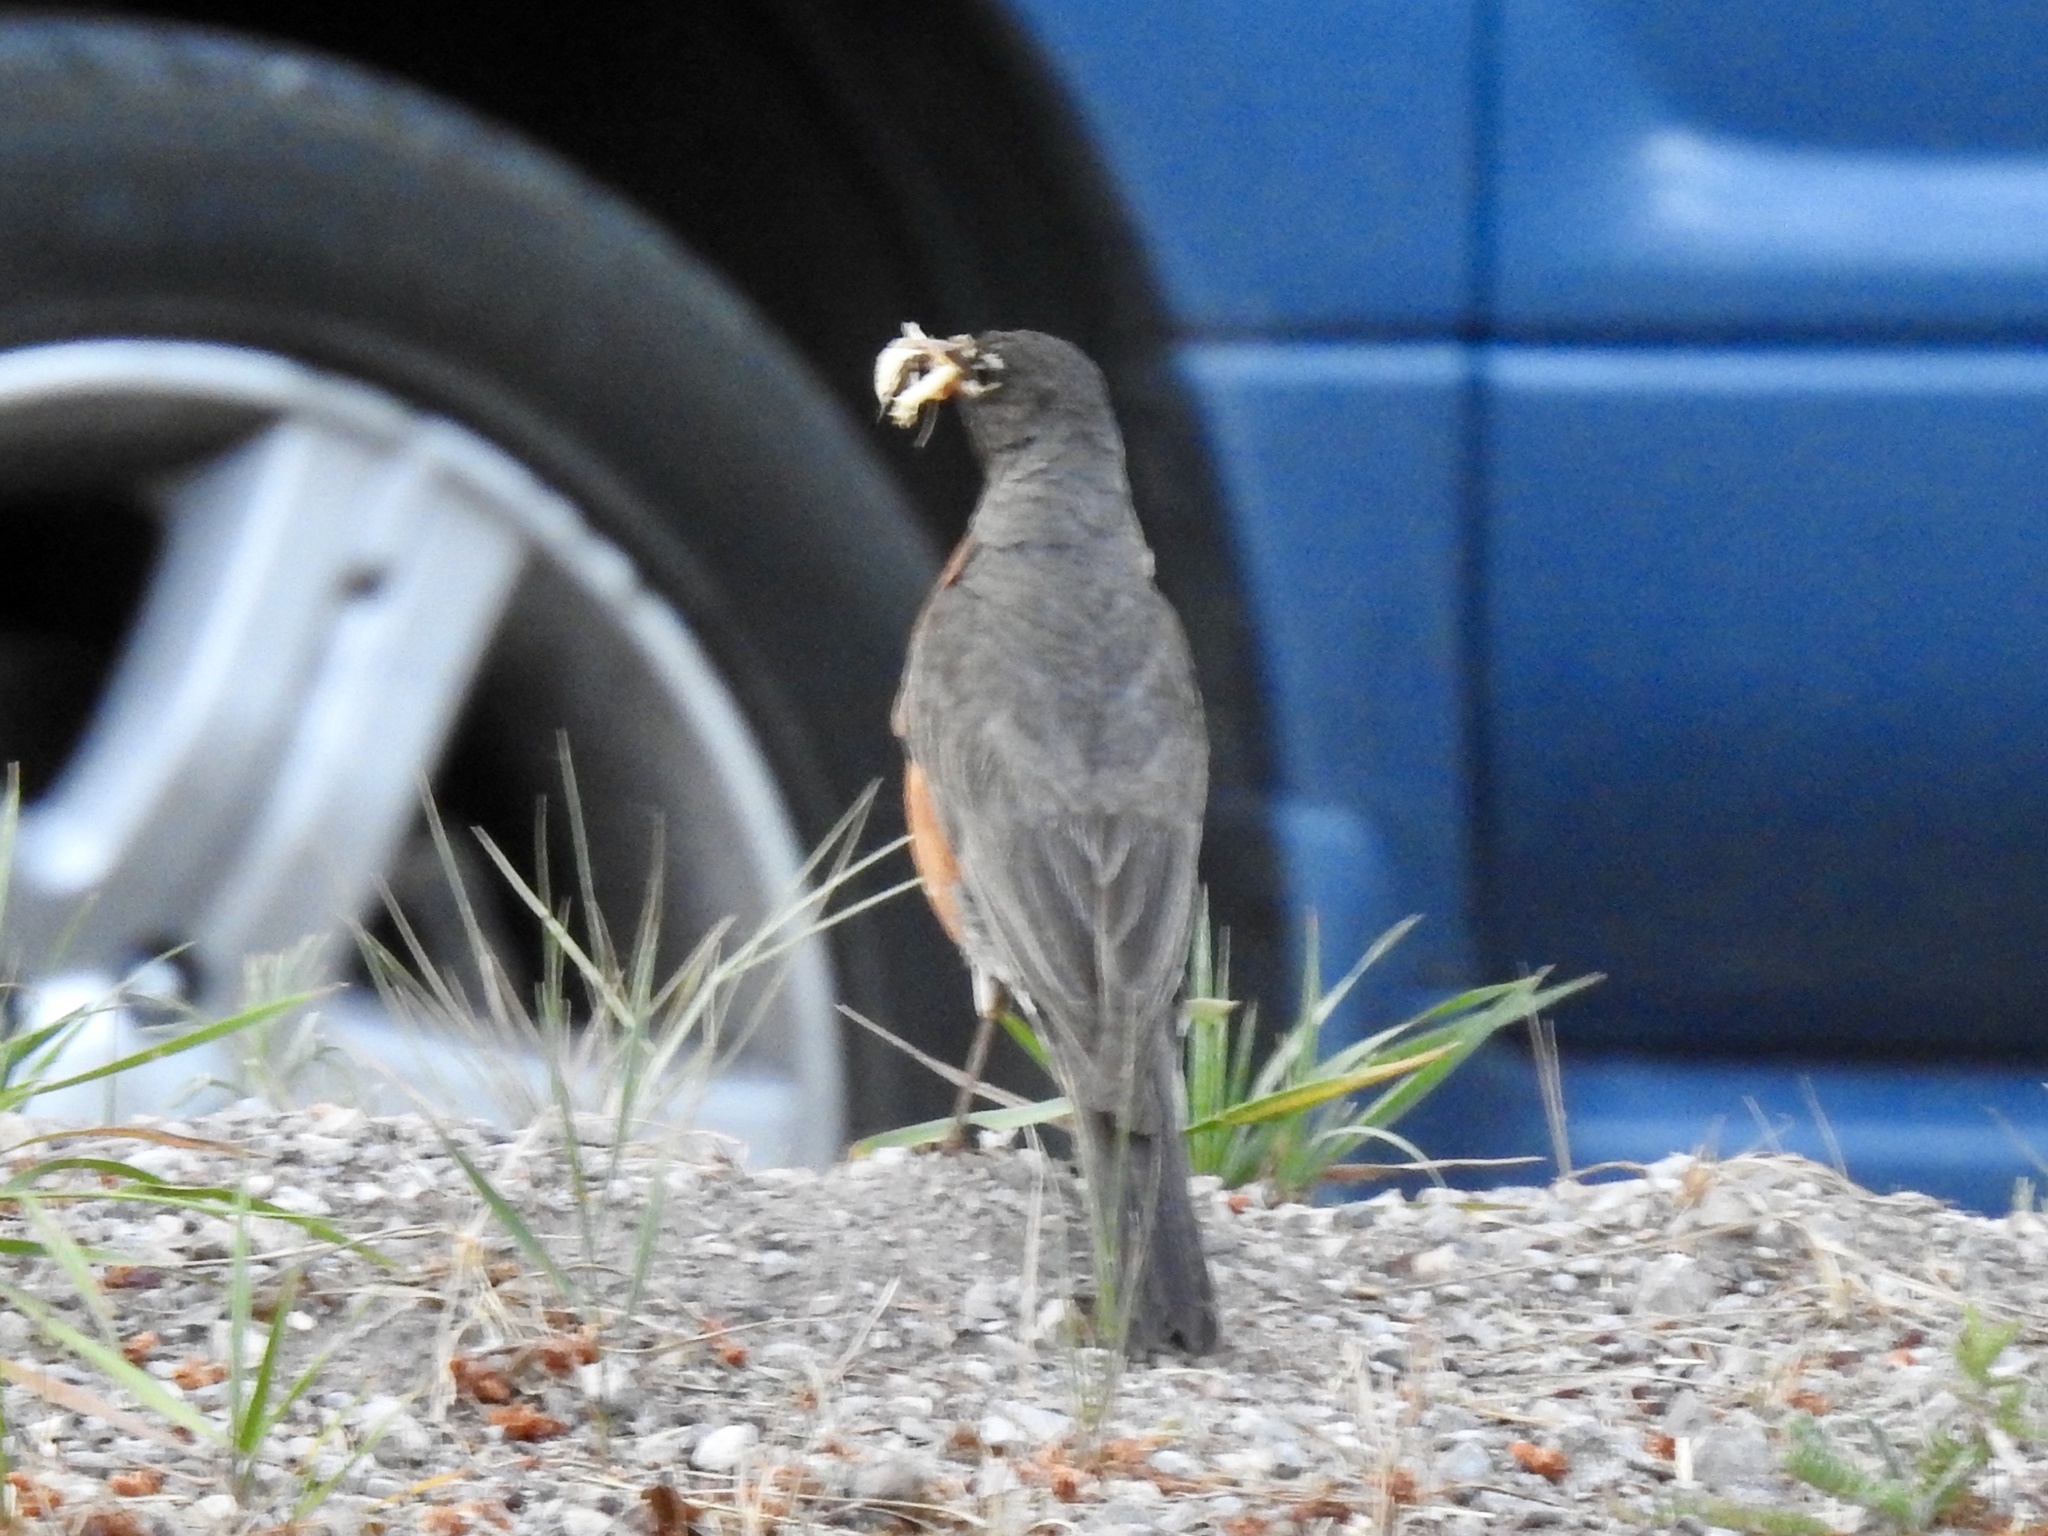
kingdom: Animalia
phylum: Chordata
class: Aves
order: Passeriformes
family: Turdidae
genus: Turdus
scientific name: Turdus migratorius
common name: American robin
